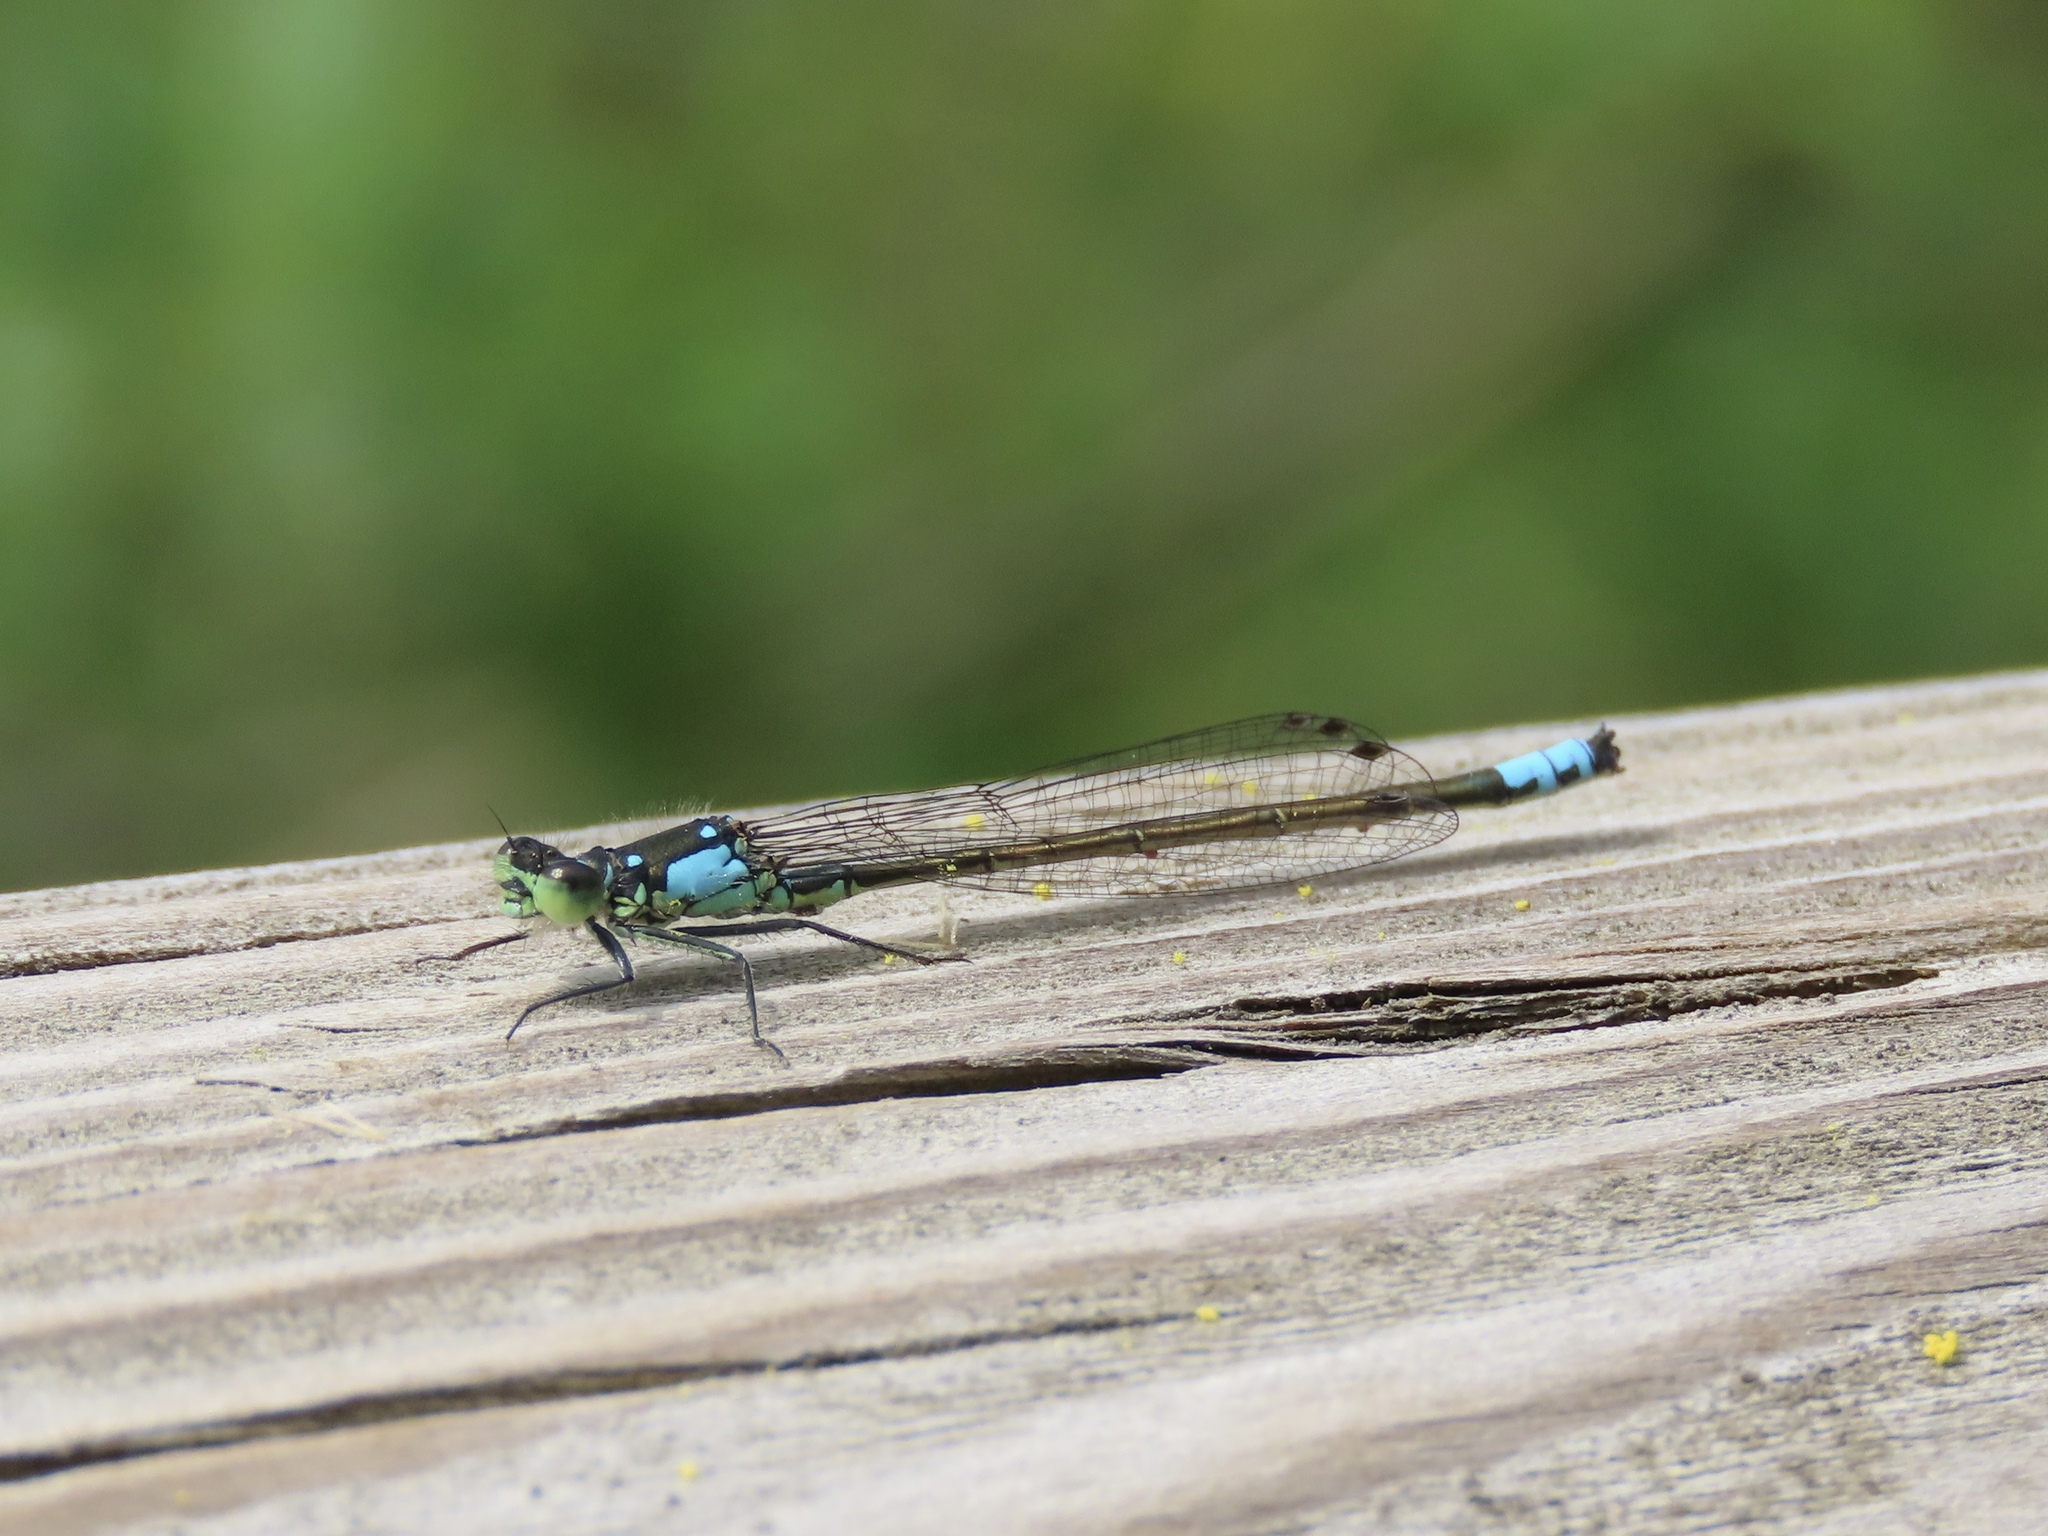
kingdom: Animalia
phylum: Arthropoda
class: Insecta
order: Odonata
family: Coenagrionidae
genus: Ischnura
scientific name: Ischnura cervula
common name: Pacific forktail
